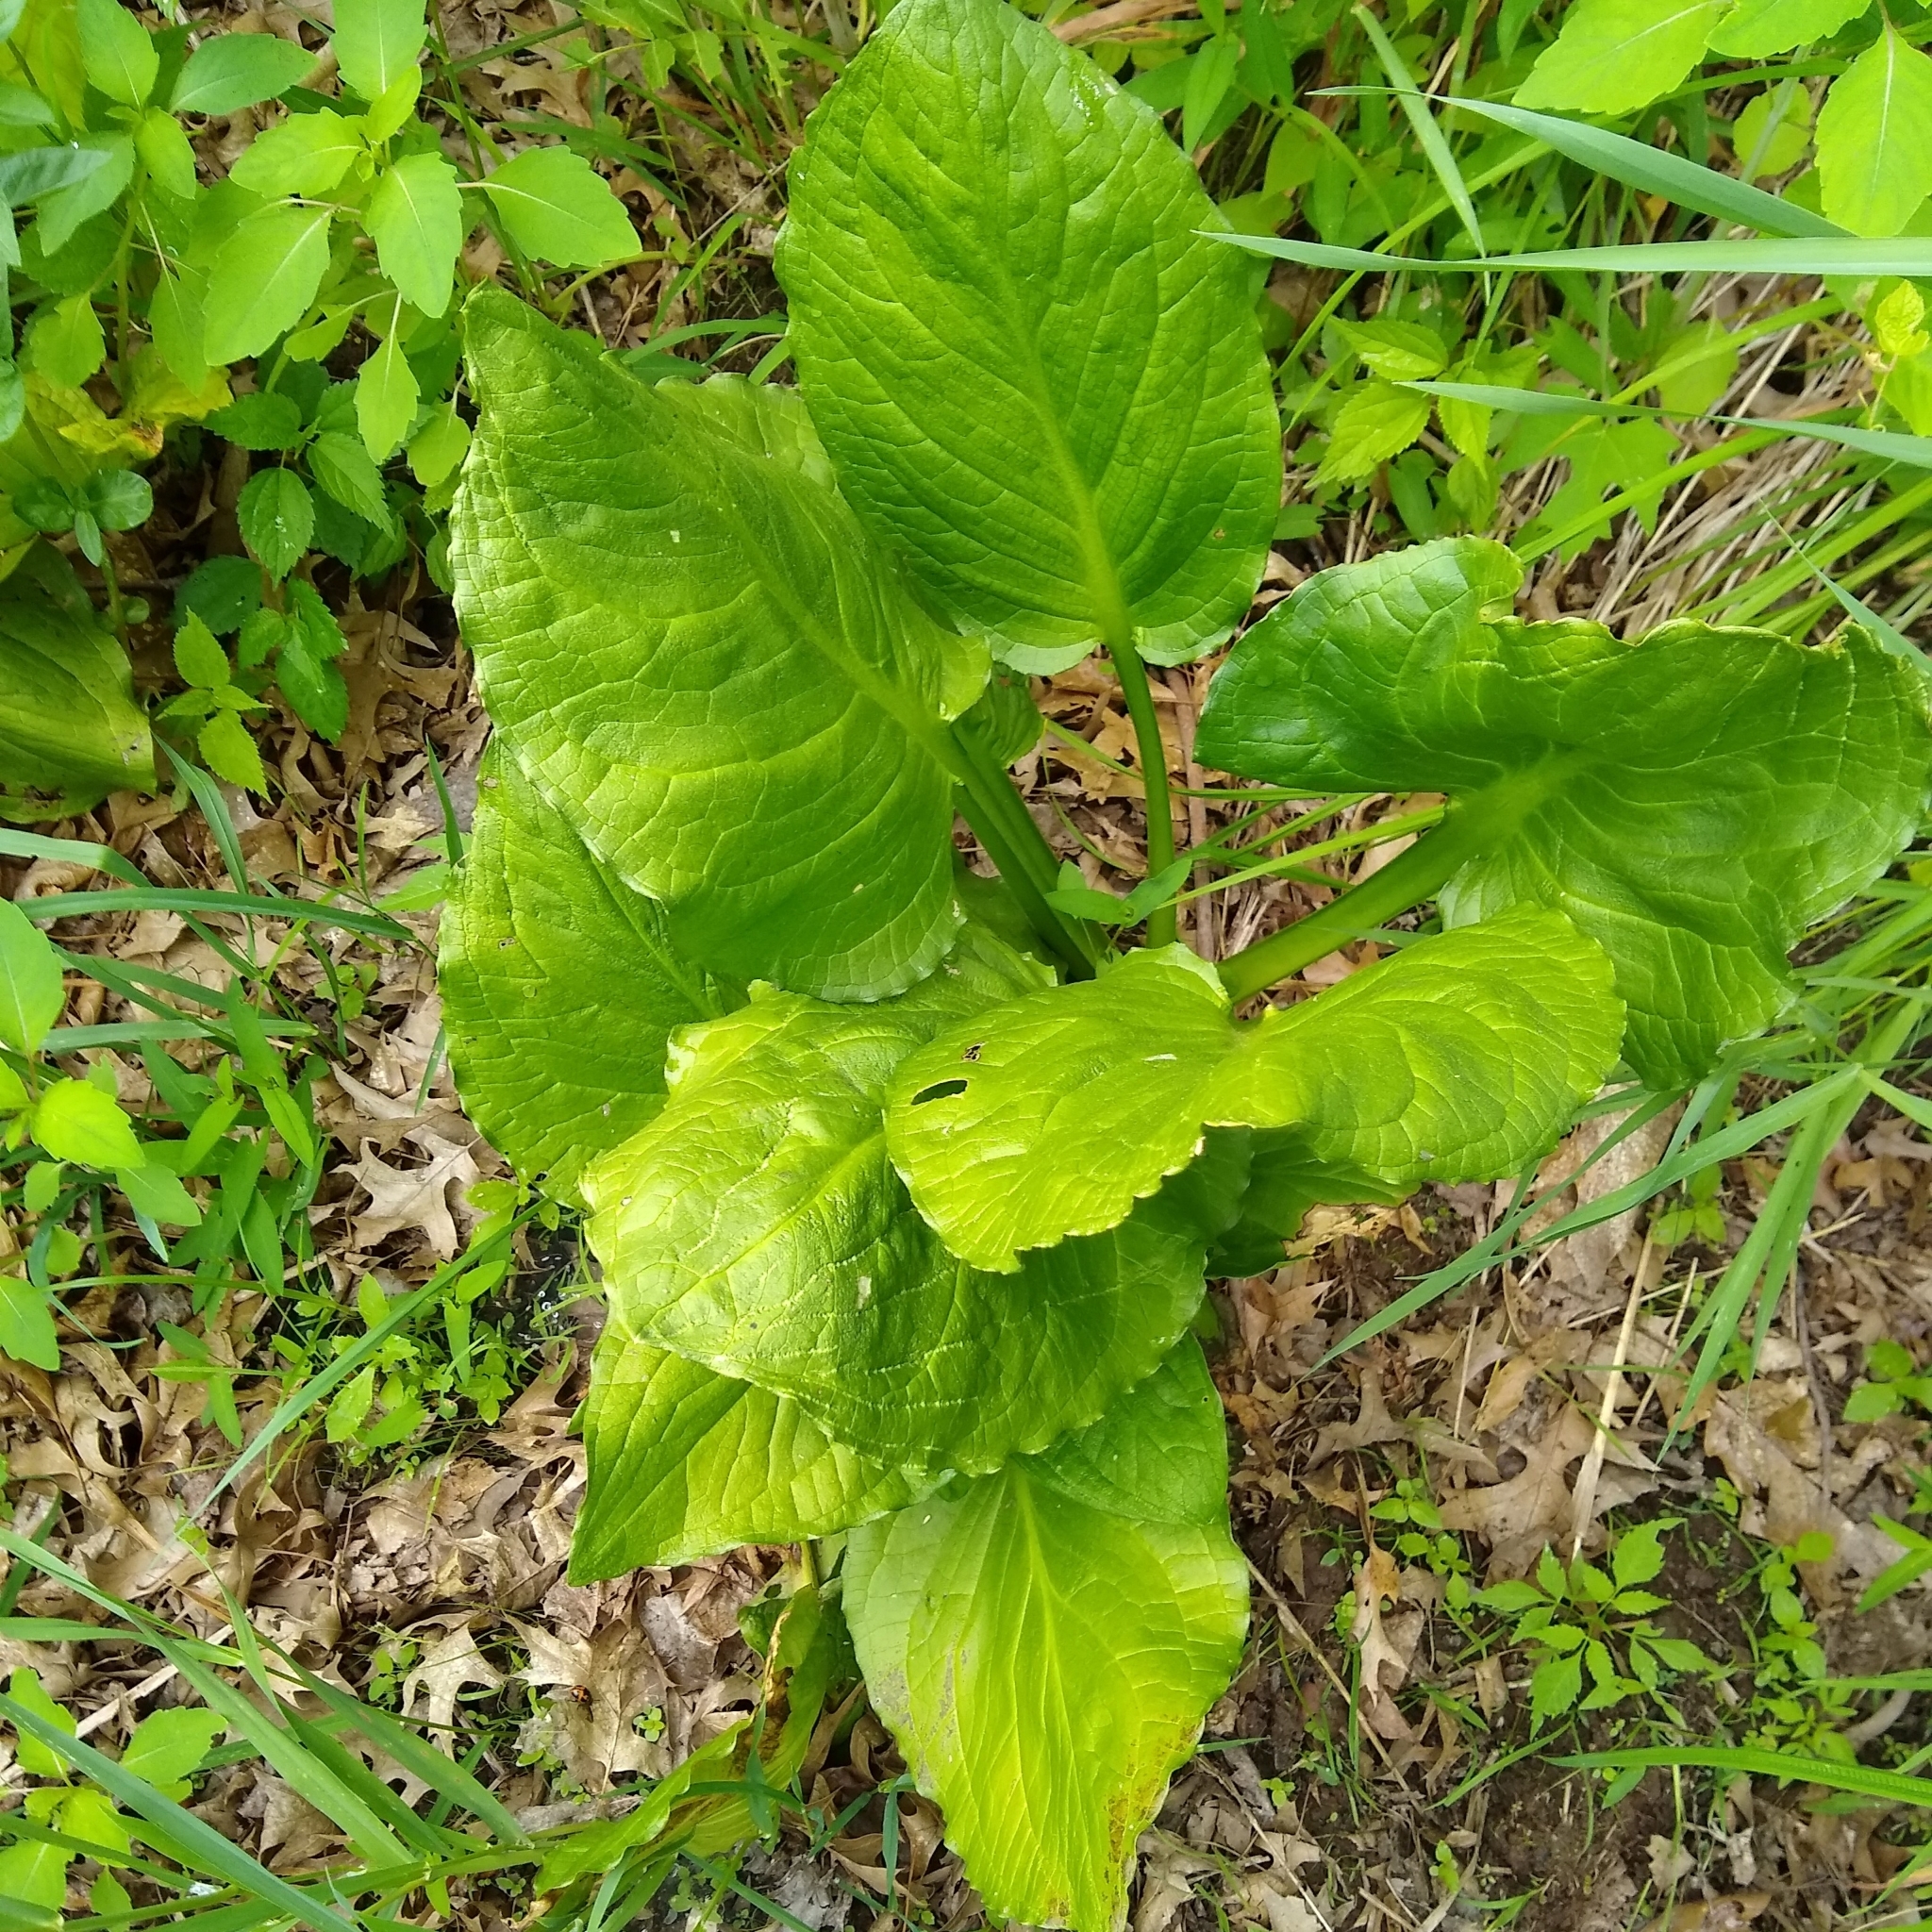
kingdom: Plantae
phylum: Tracheophyta
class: Liliopsida
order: Alismatales
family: Araceae
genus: Symplocarpus
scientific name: Symplocarpus foetidus
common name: Eastern skunk cabbage
